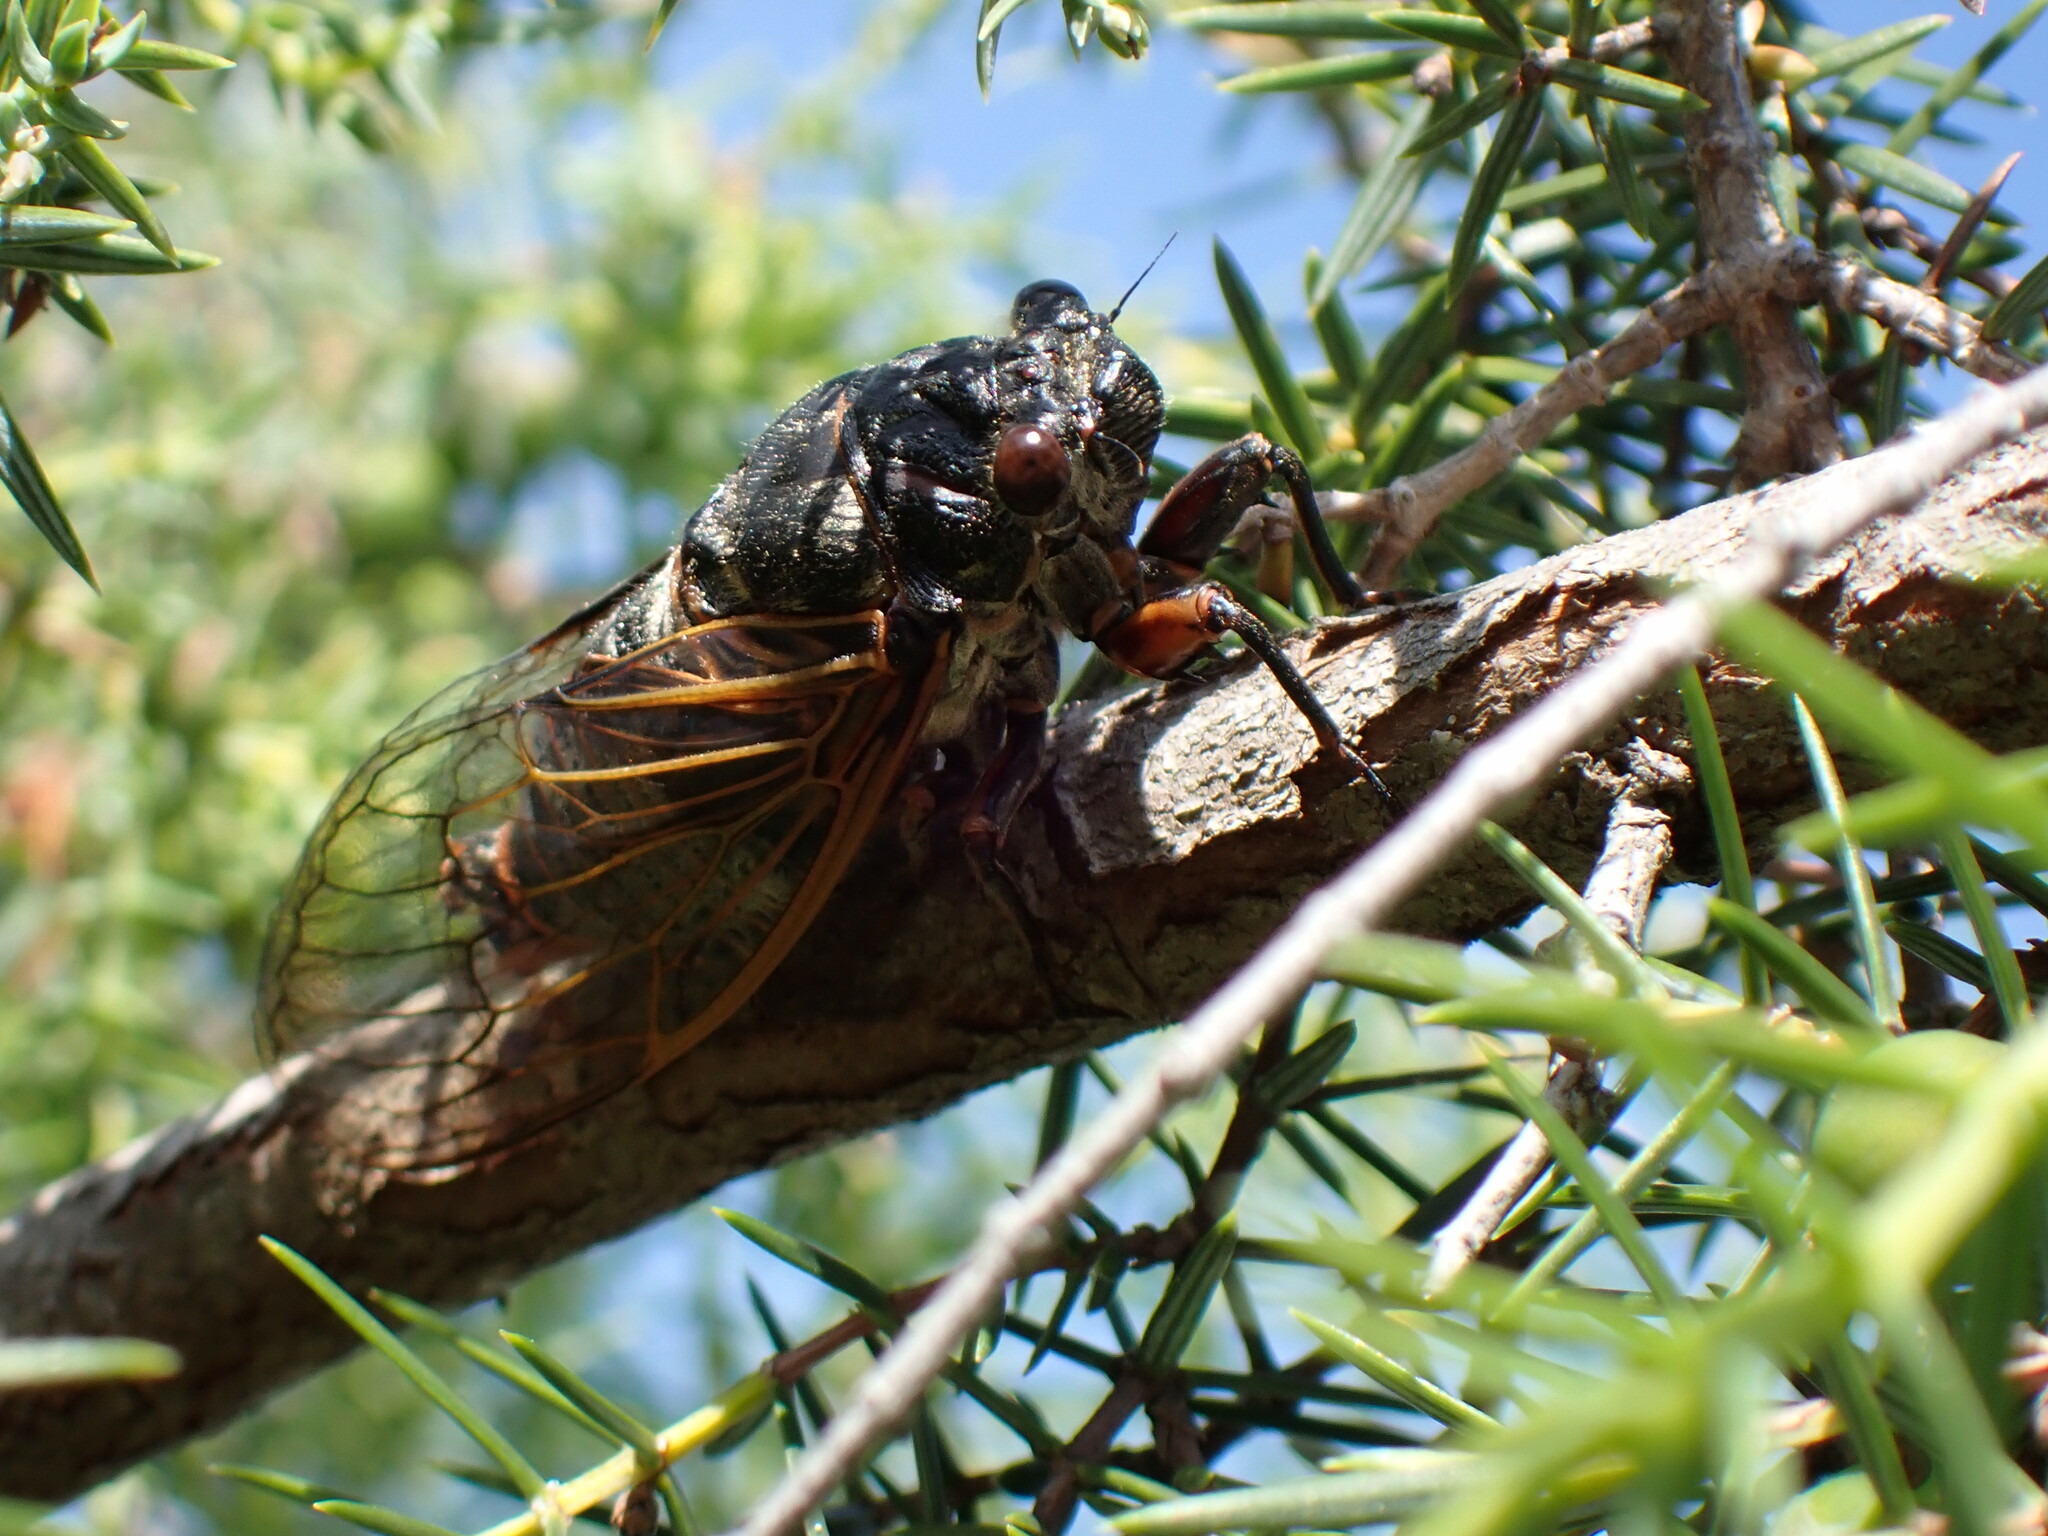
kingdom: Animalia
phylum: Arthropoda
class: Insecta
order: Hemiptera
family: Cicadidae
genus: Tibicina
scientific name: Tibicina haematodes
